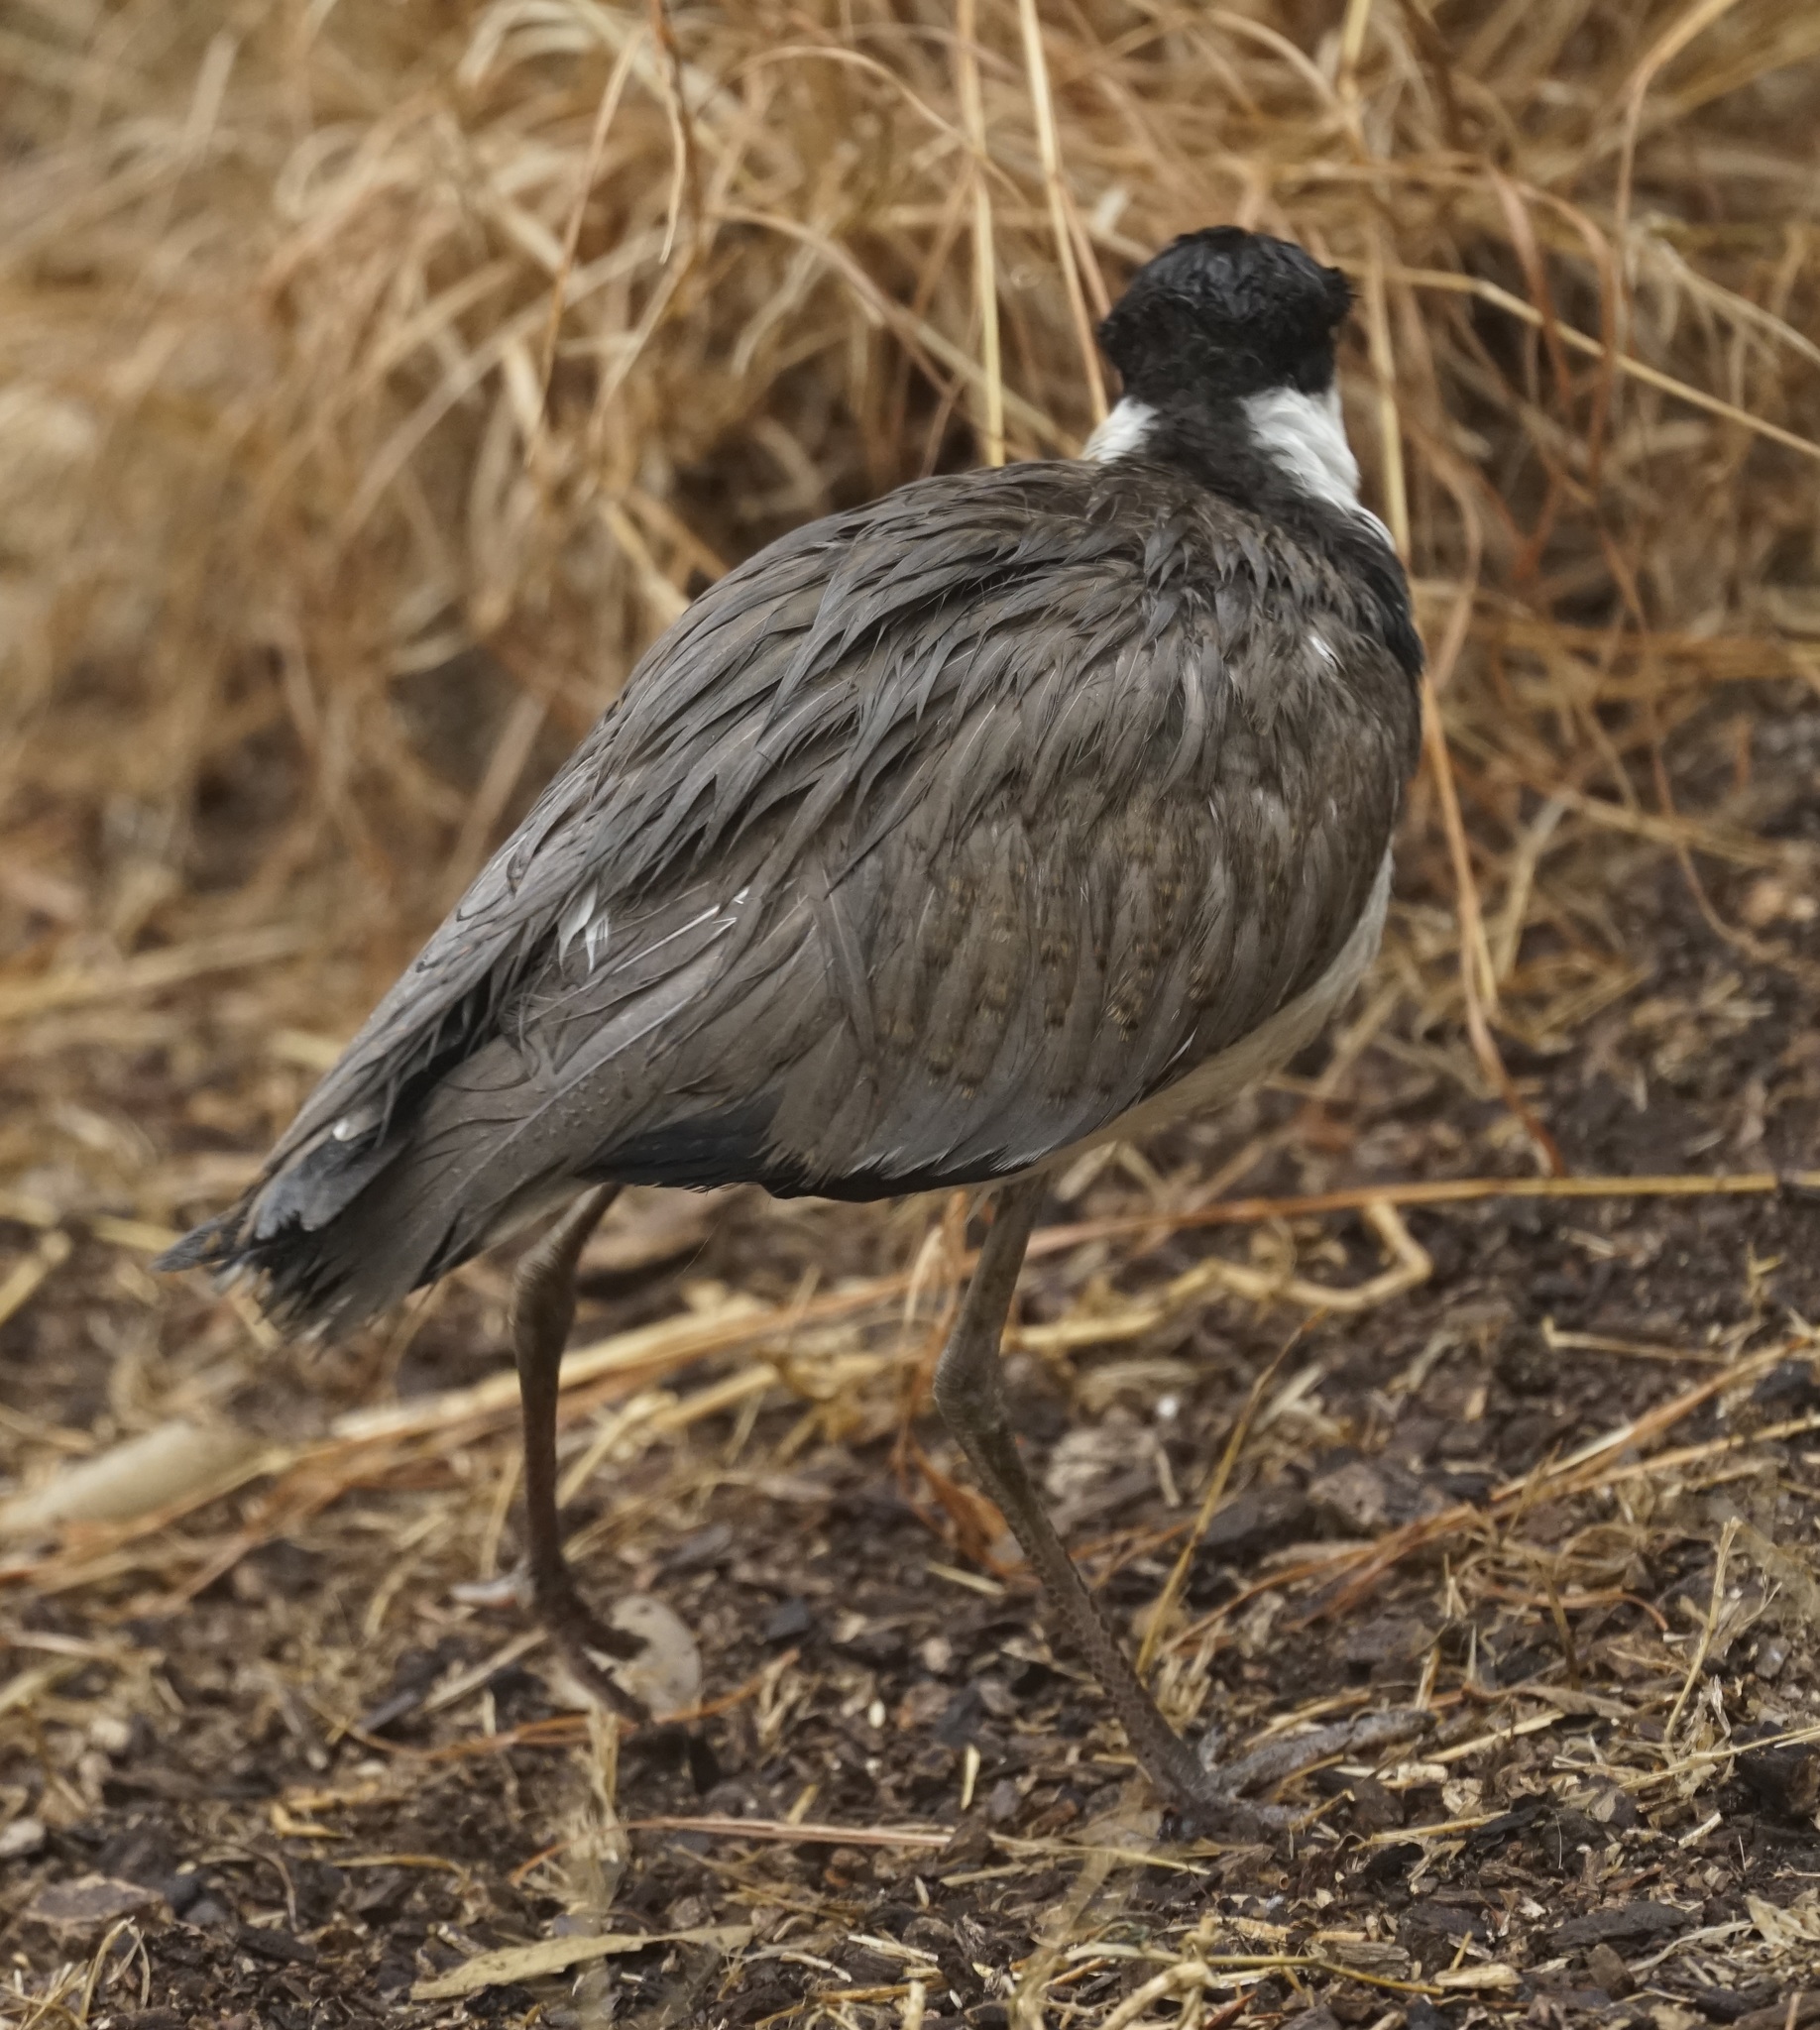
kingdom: Animalia
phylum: Chordata
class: Aves
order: Charadriiformes
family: Charadriidae
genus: Vanellus
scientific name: Vanellus miles
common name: Masked lapwing
